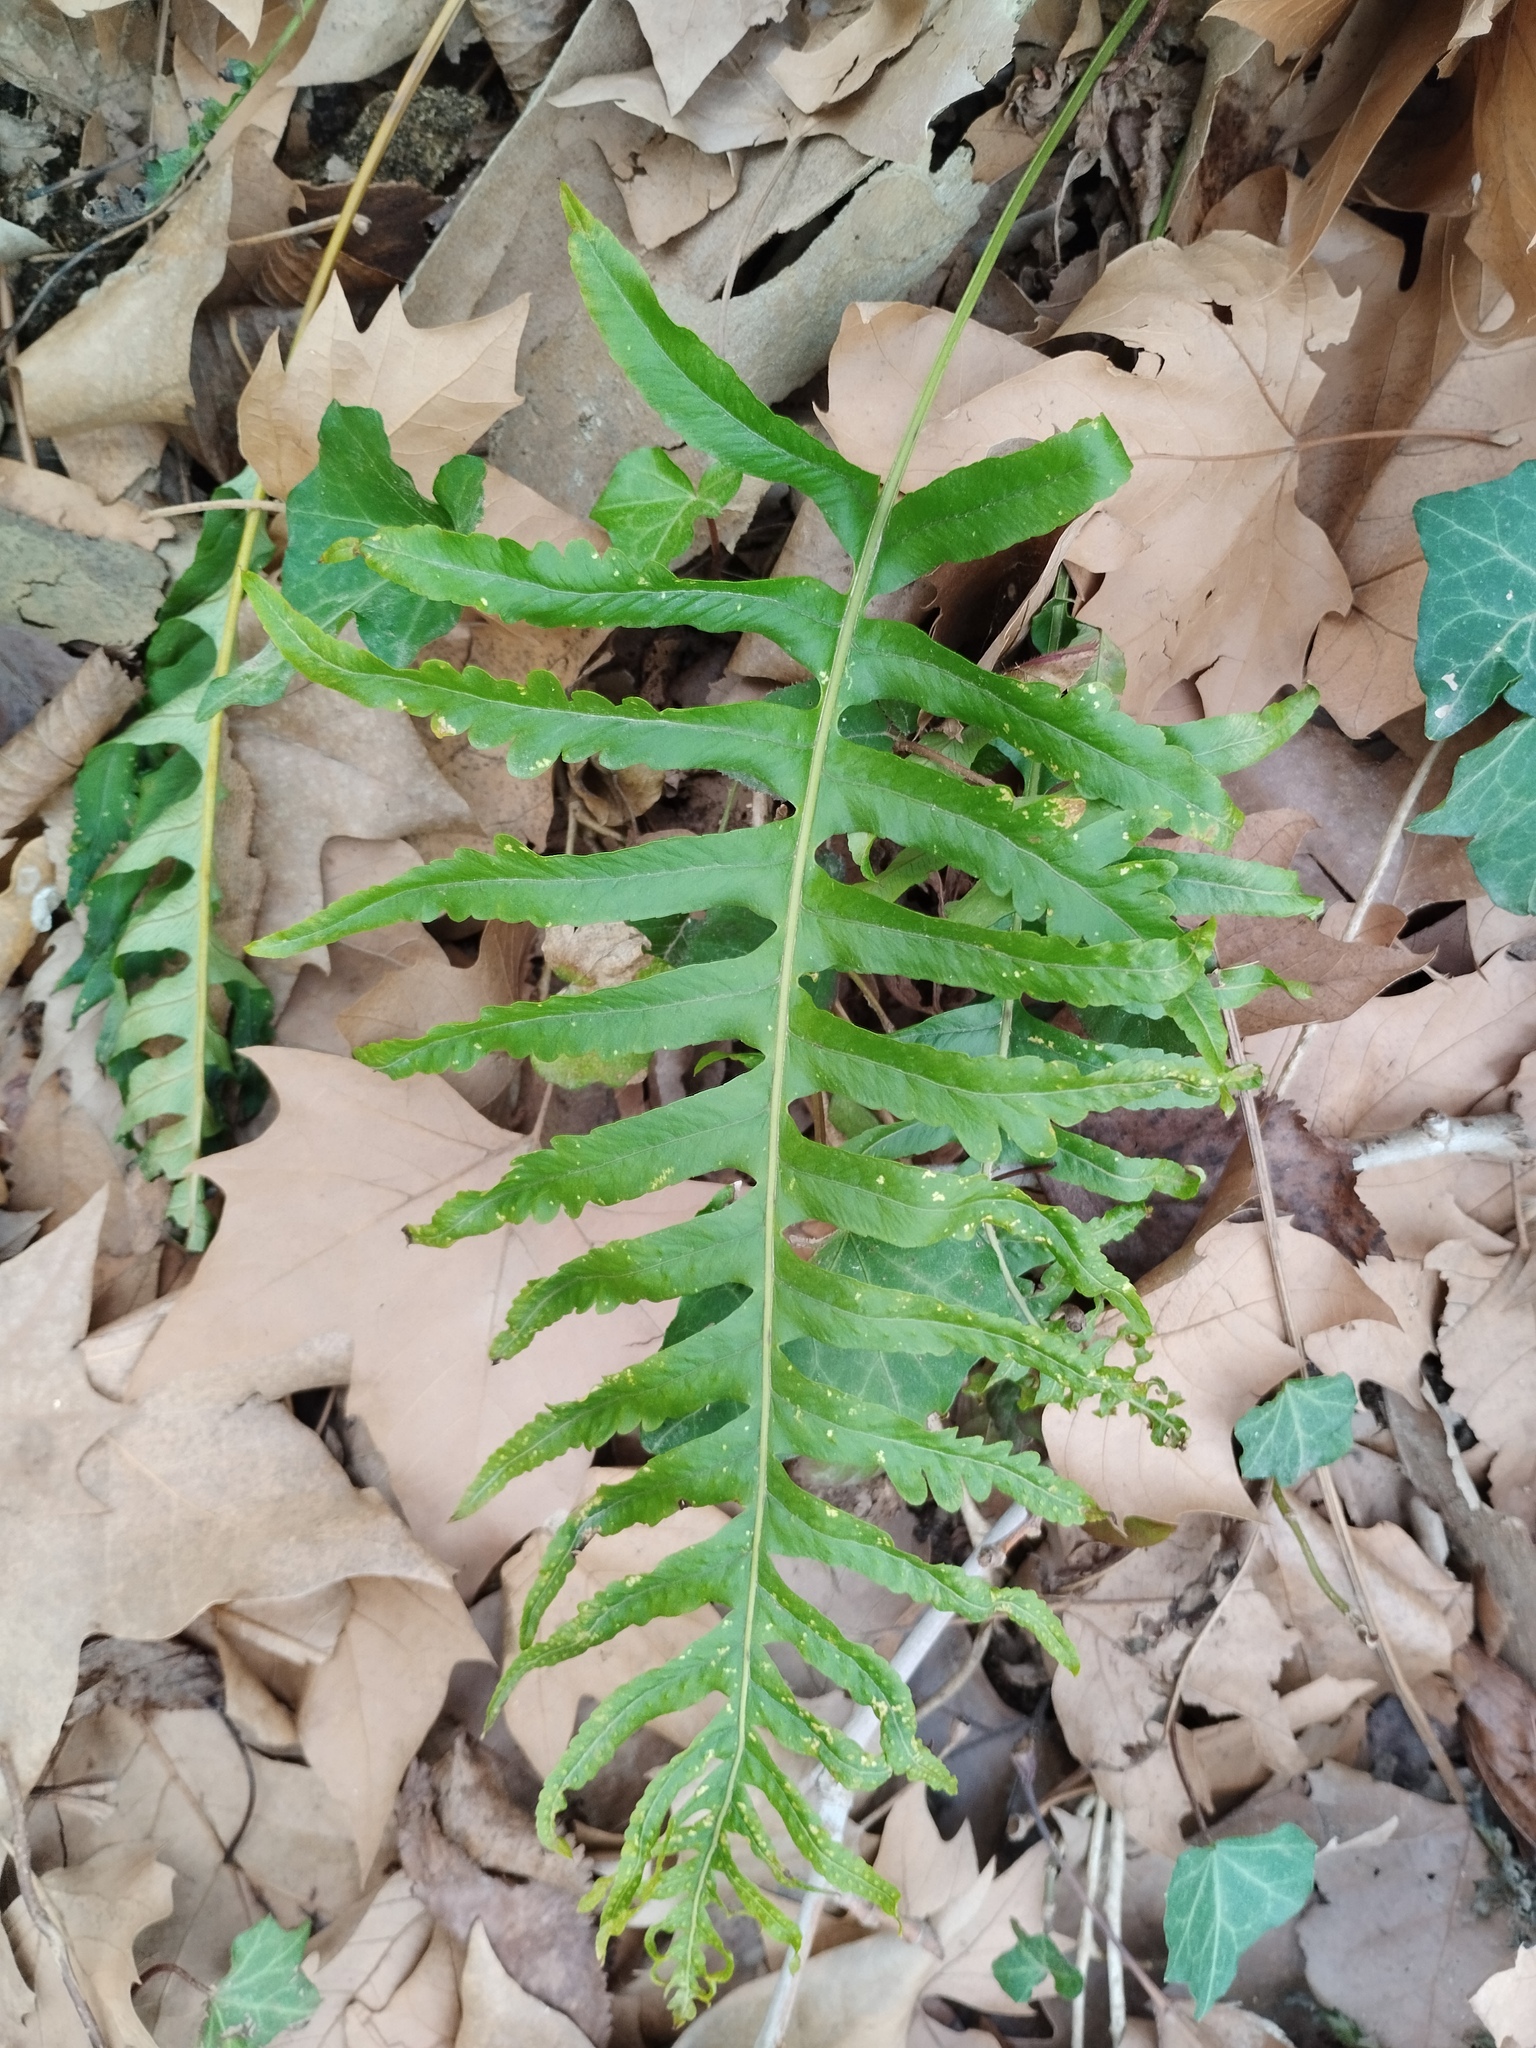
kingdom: Plantae
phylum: Tracheophyta
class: Polypodiopsida
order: Polypodiales
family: Polypodiaceae
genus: Polypodium
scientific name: Polypodium cambricum
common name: Southern polypody
